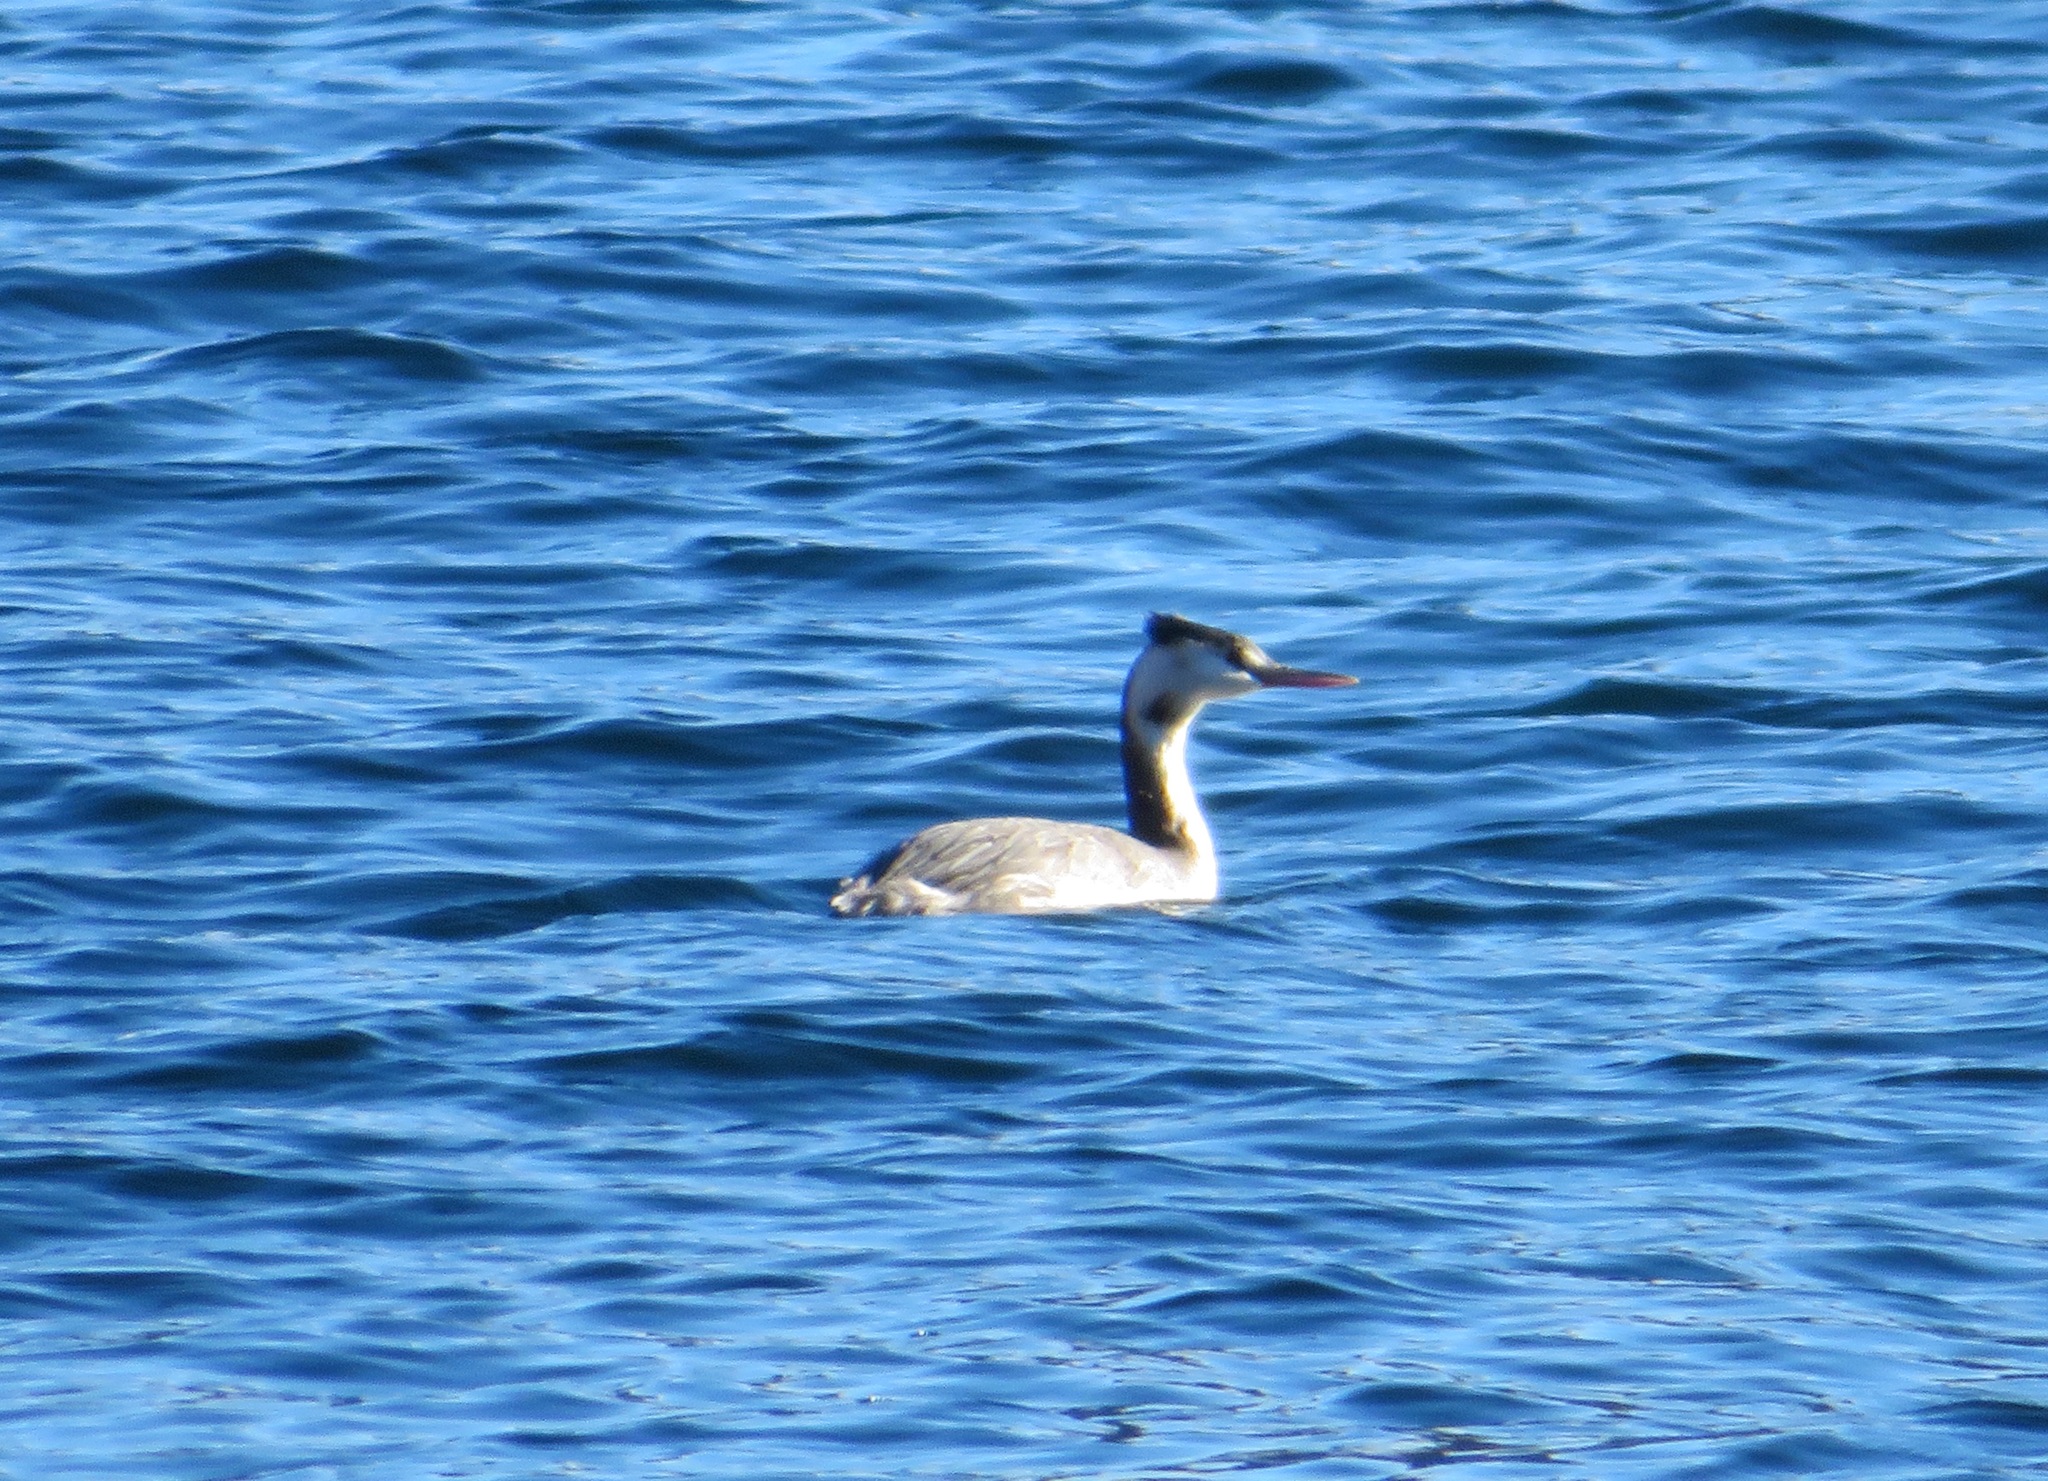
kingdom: Animalia
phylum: Chordata
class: Aves
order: Podicipediformes
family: Podicipedidae
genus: Podiceps
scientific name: Podiceps cristatus
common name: Great crested grebe
